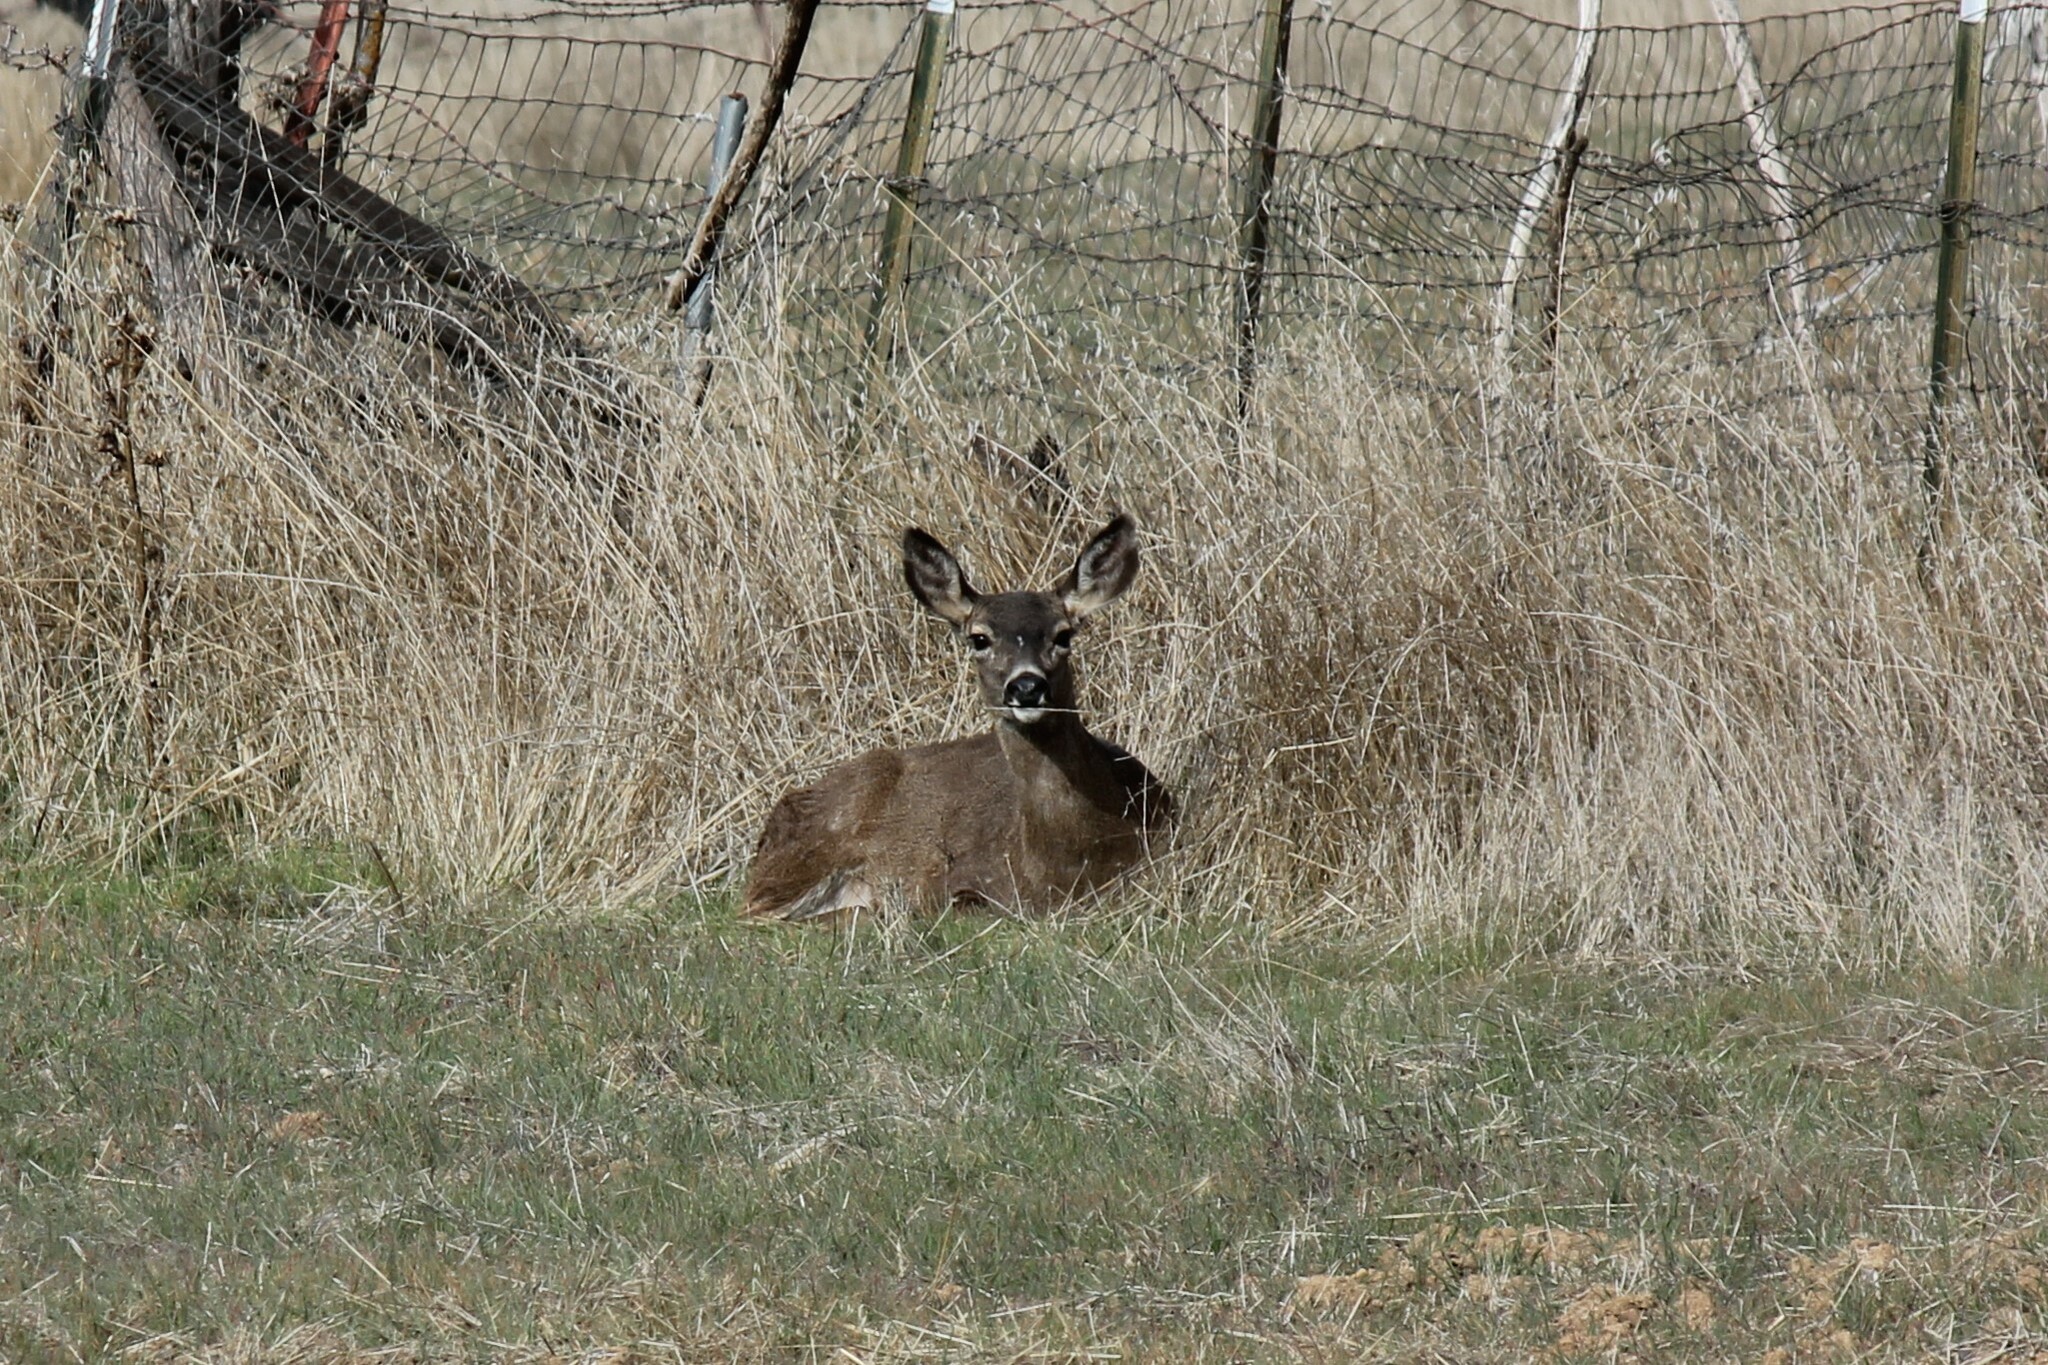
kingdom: Animalia
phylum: Chordata
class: Mammalia
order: Artiodactyla
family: Cervidae
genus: Odocoileus
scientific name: Odocoileus hemionus
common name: Mule deer
